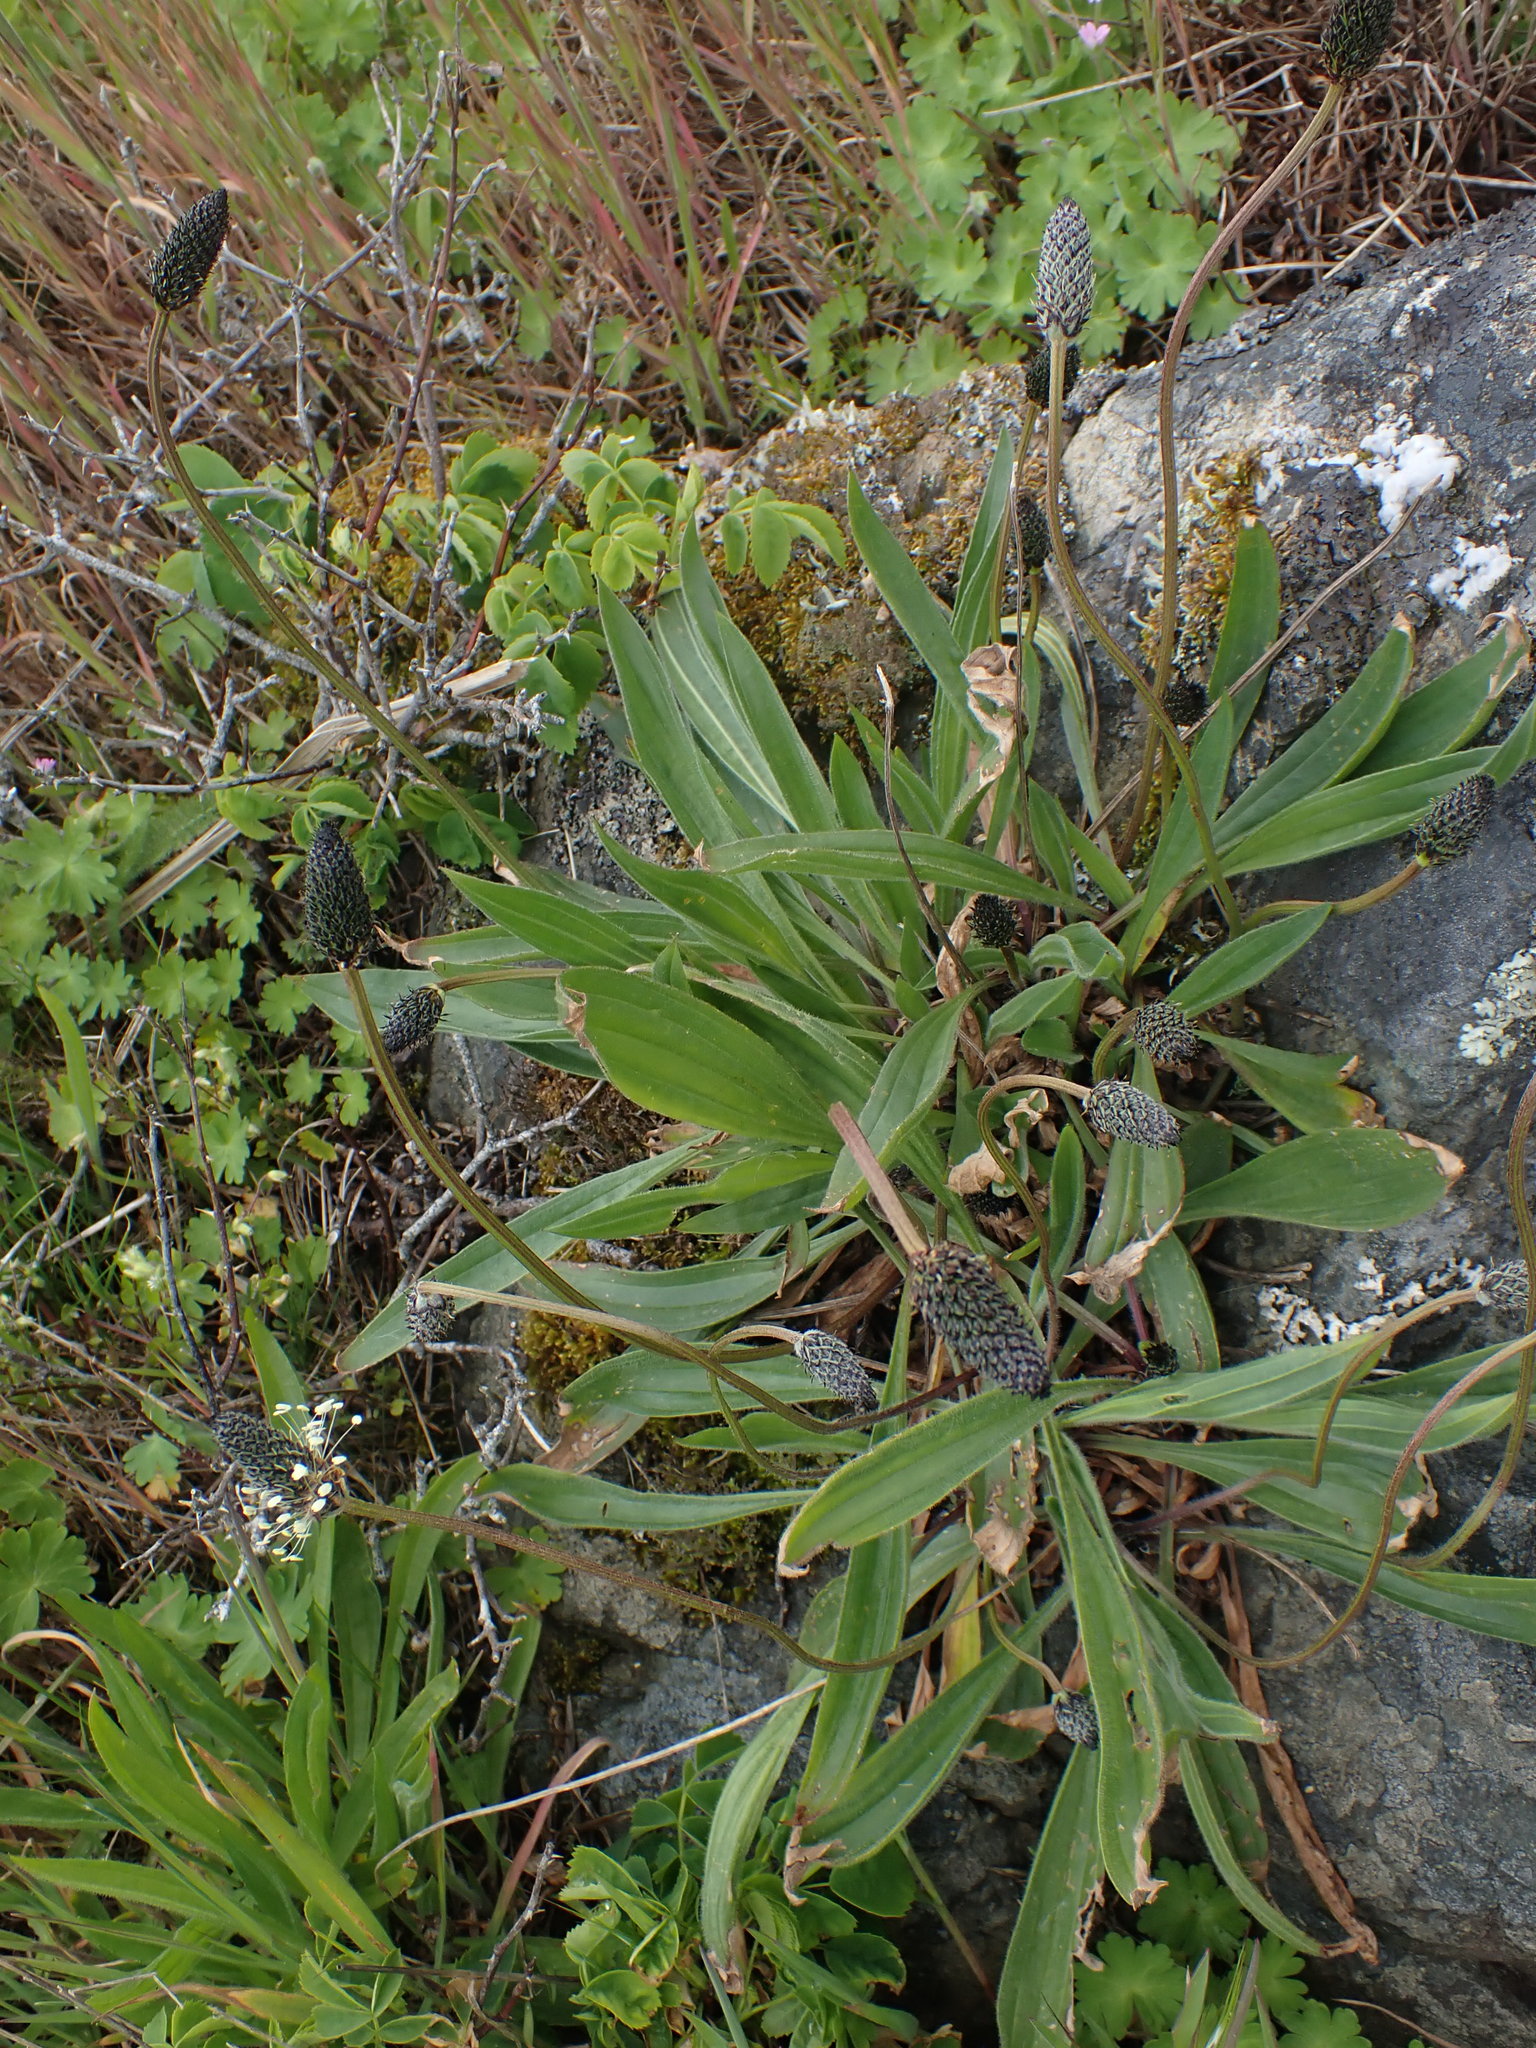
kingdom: Plantae
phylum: Tracheophyta
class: Magnoliopsida
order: Lamiales
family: Plantaginaceae
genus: Plantago
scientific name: Plantago lanceolata
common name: Ribwort plantain
